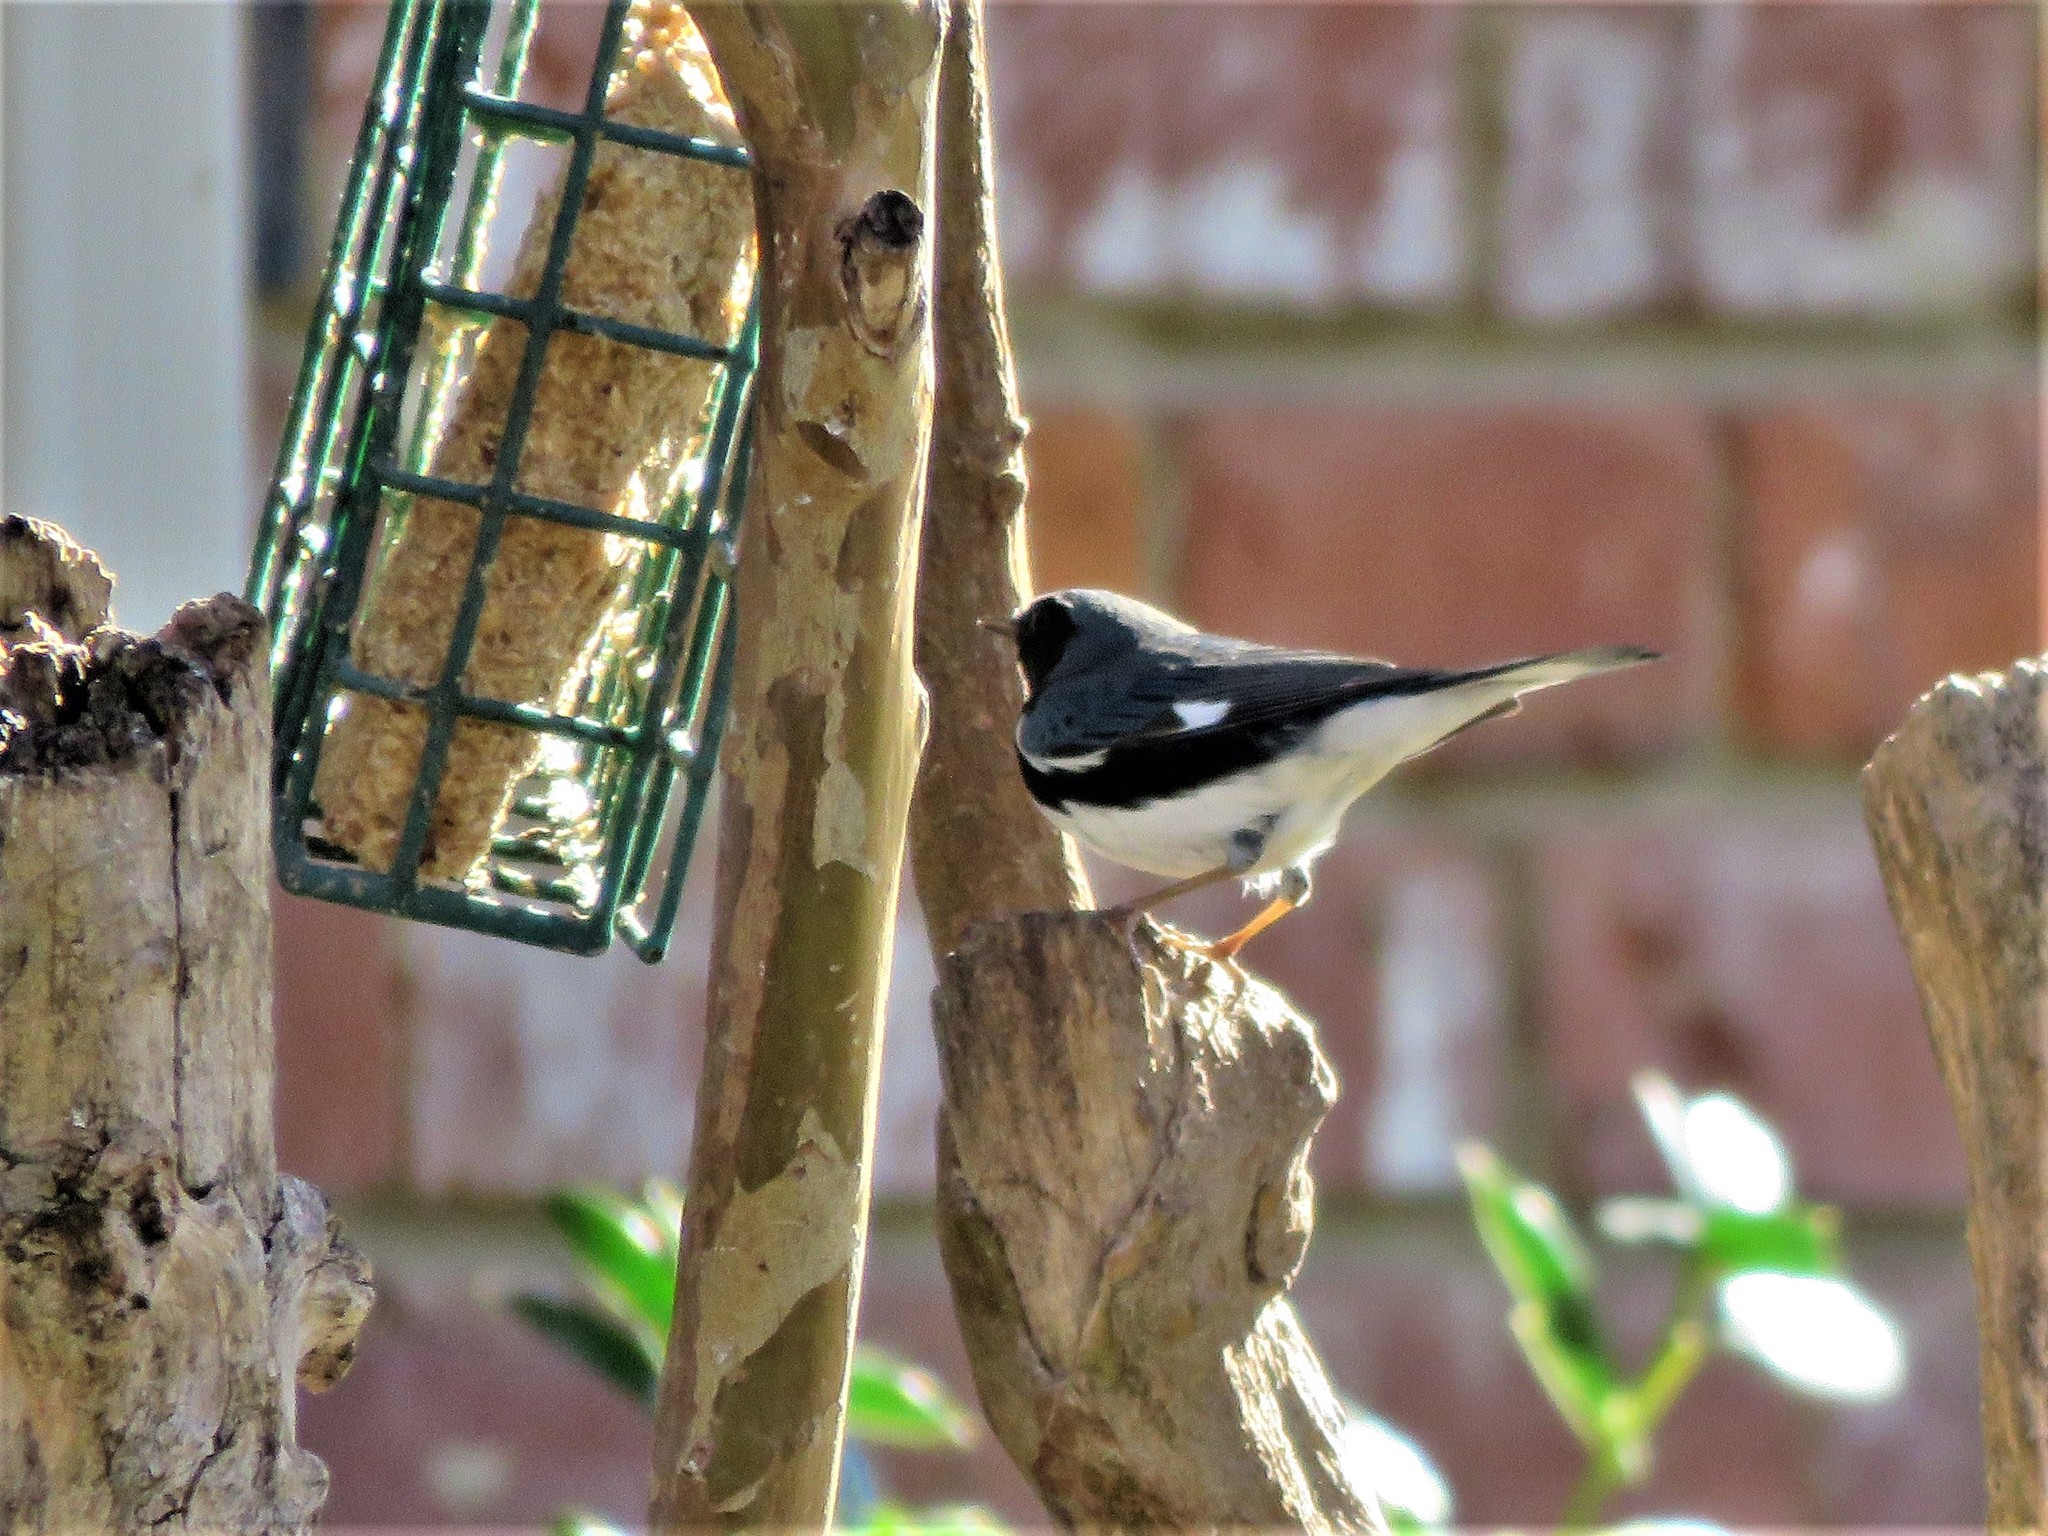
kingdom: Animalia
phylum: Chordata
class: Aves
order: Passeriformes
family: Parulidae
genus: Setophaga
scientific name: Setophaga caerulescens
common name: Black-throated blue warbler
